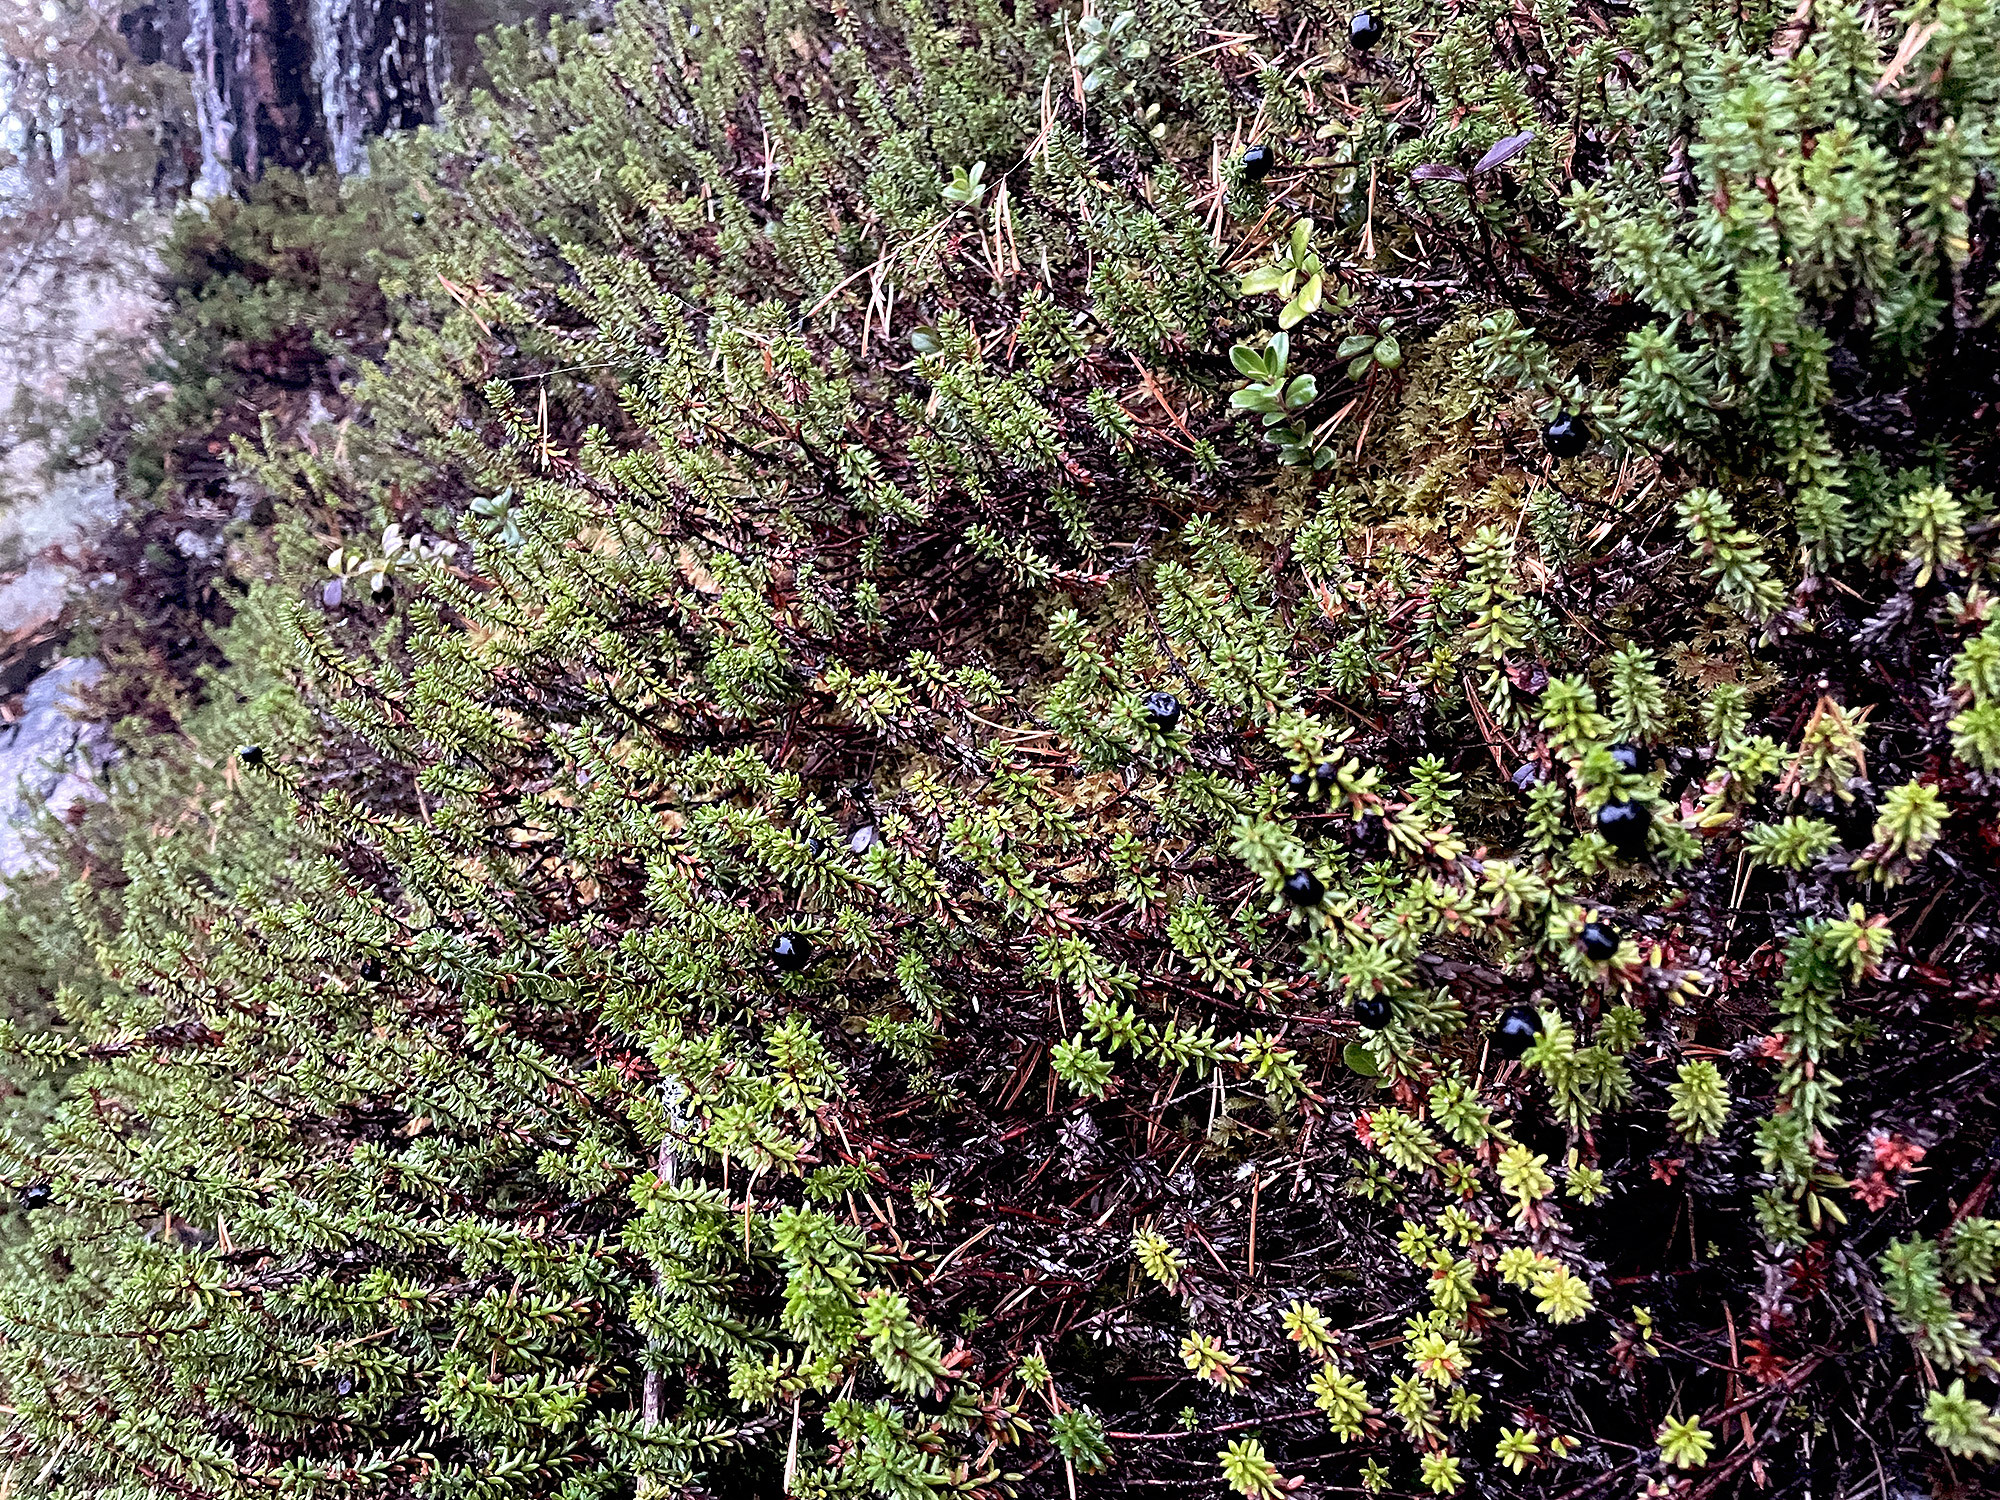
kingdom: Plantae
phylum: Tracheophyta
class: Magnoliopsida
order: Ericales
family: Ericaceae
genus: Empetrum
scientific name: Empetrum nigrum
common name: Black crowberry
